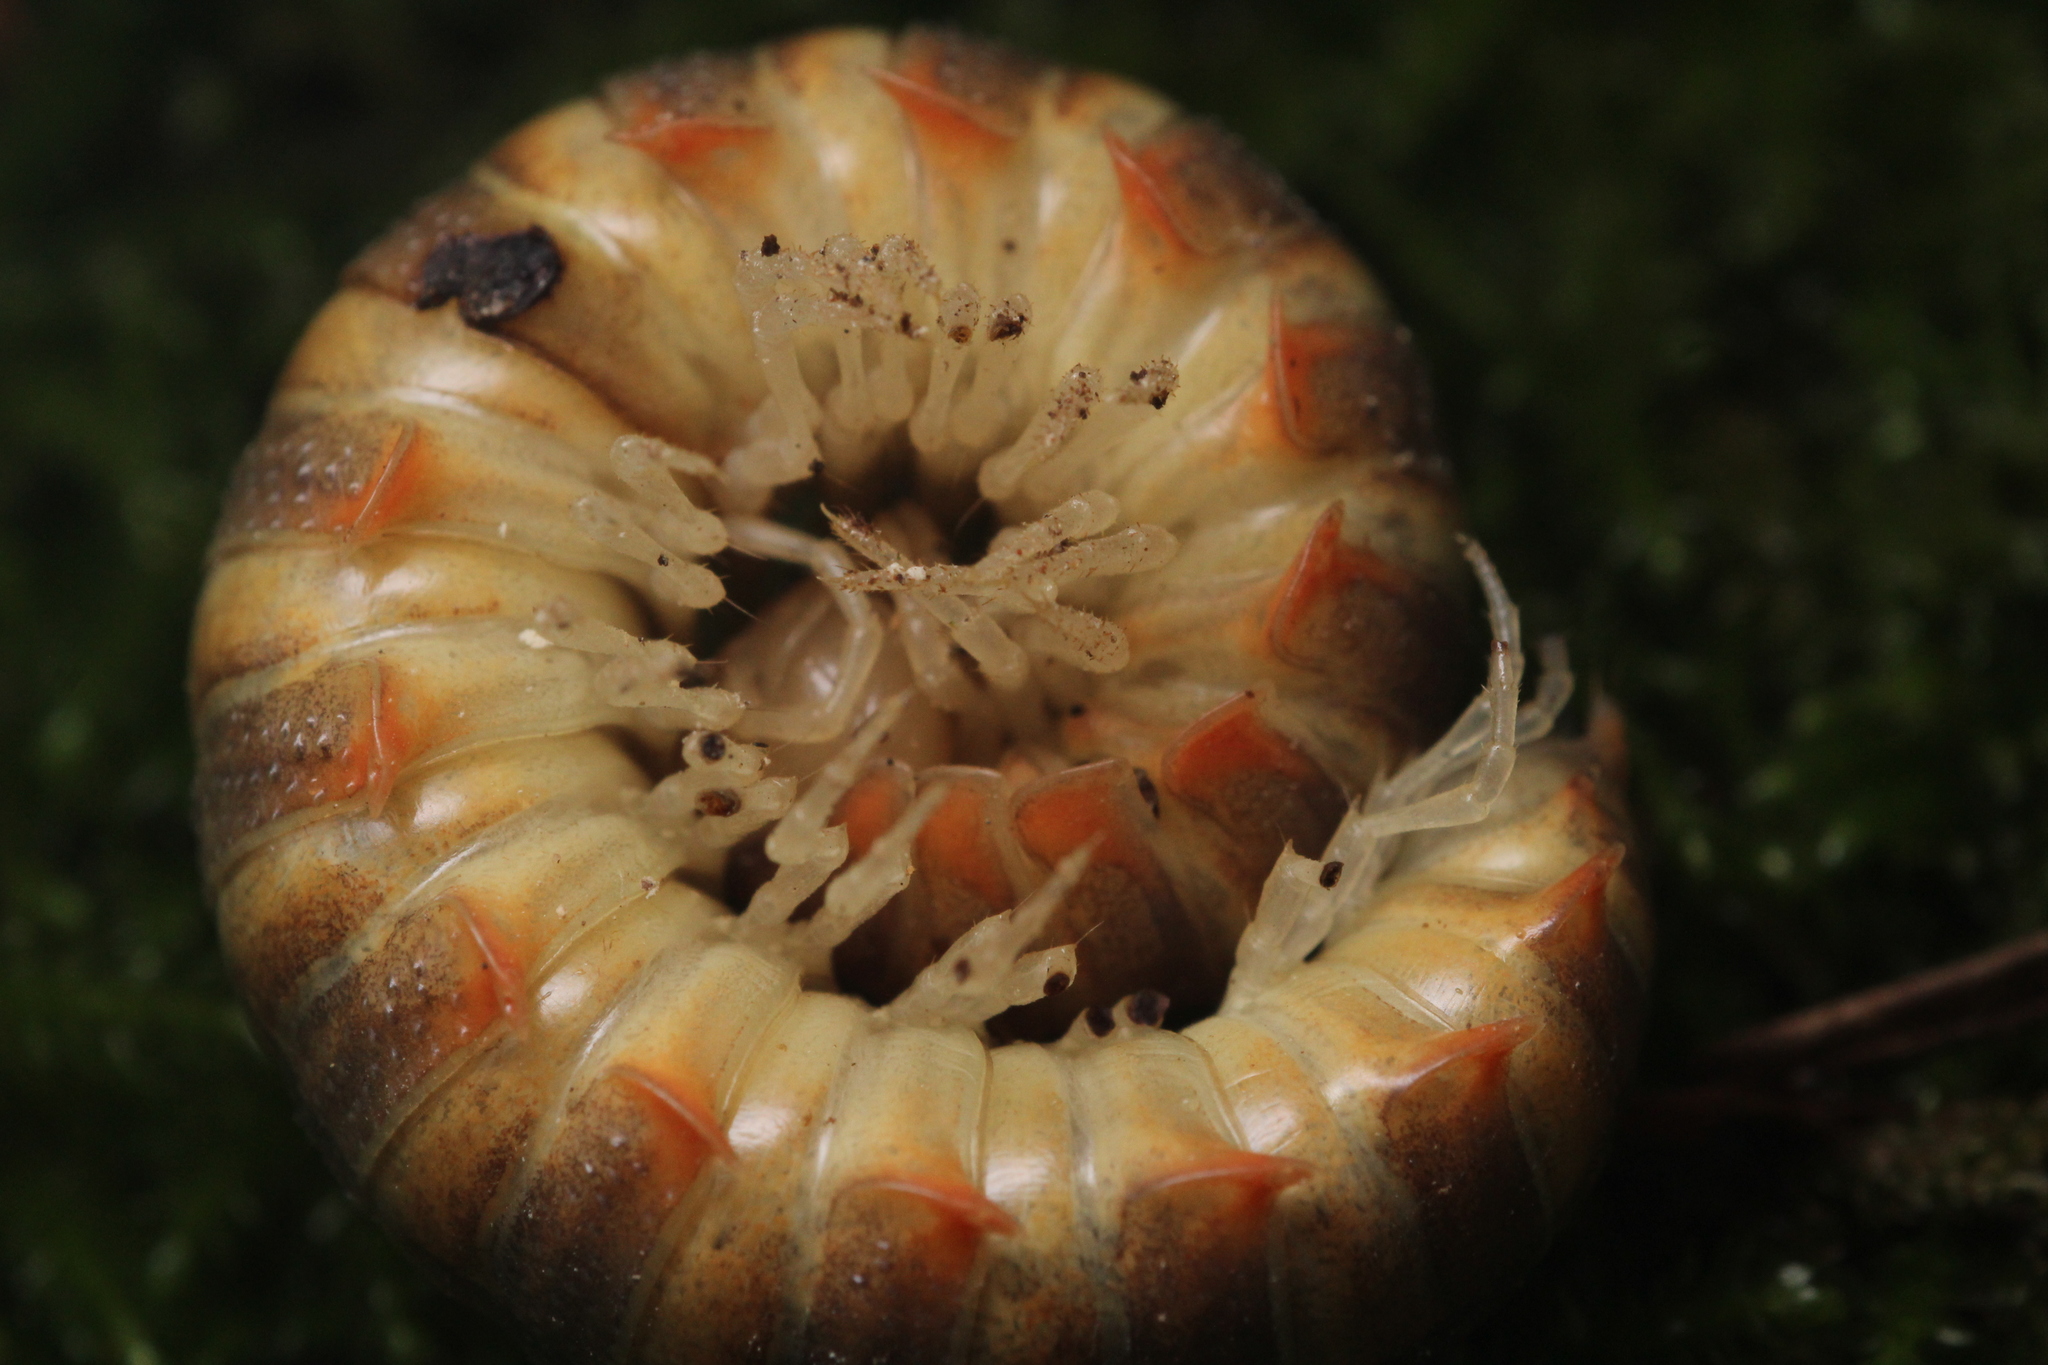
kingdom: Animalia
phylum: Arthropoda
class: Diplopoda
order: Polydesmida
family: Xystodesmidae
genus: Xystocheir
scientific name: Xystocheir dissecta
